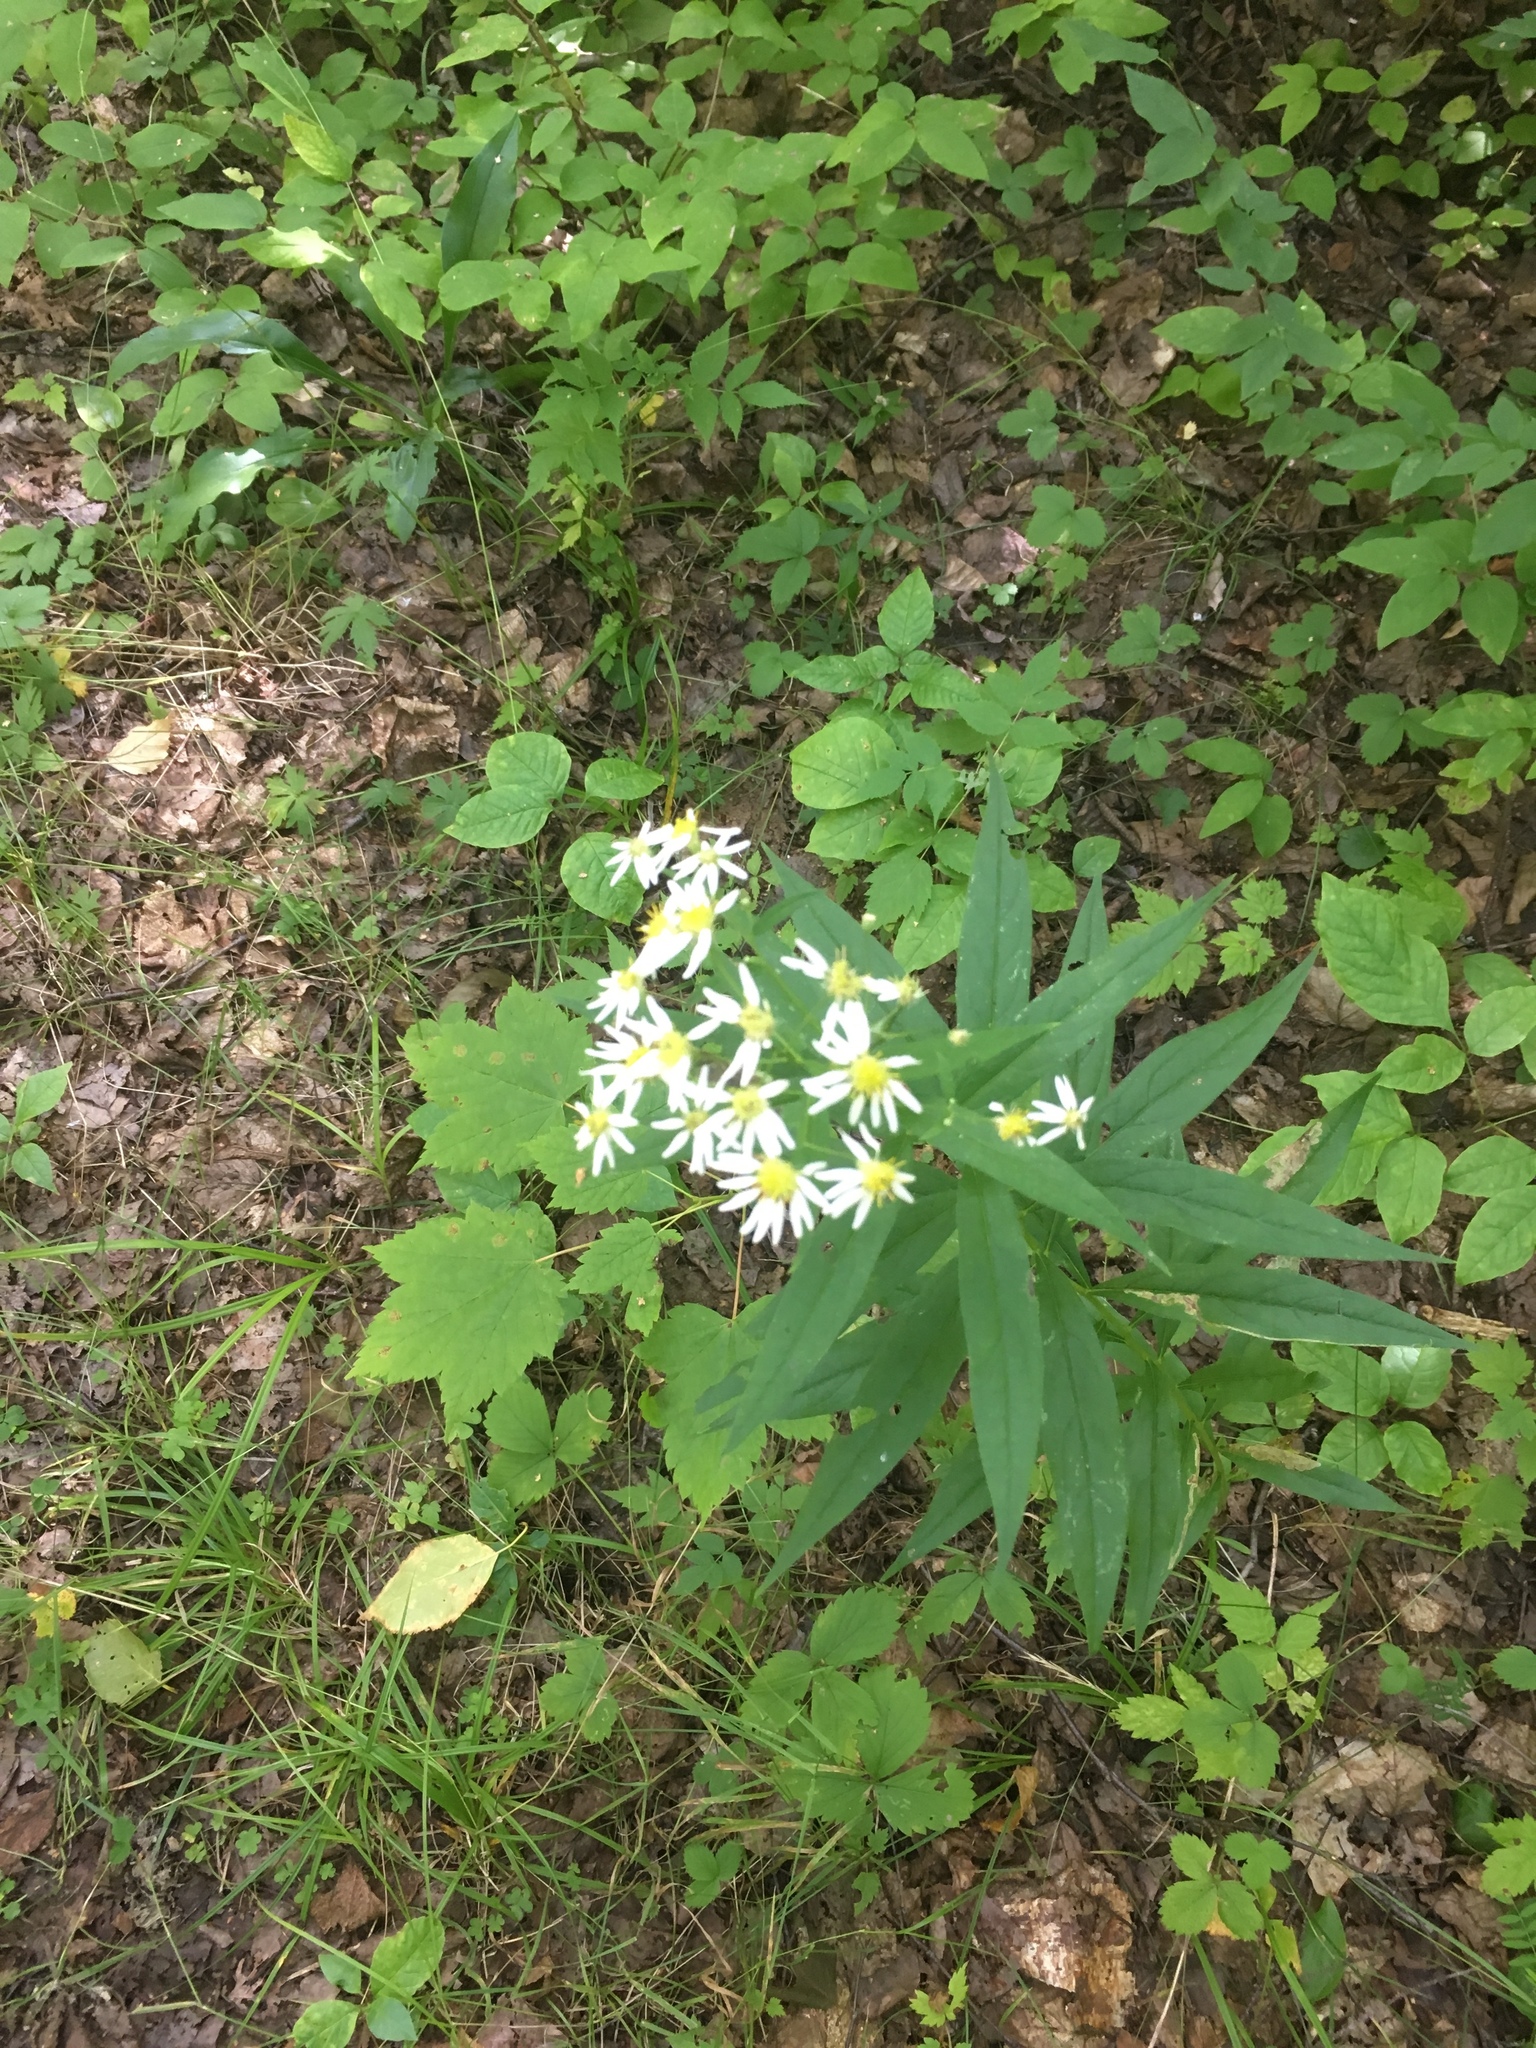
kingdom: Plantae
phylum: Tracheophyta
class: Magnoliopsida
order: Asterales
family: Asteraceae
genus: Doellingeria
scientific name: Doellingeria umbellata
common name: Flat-top white aster
